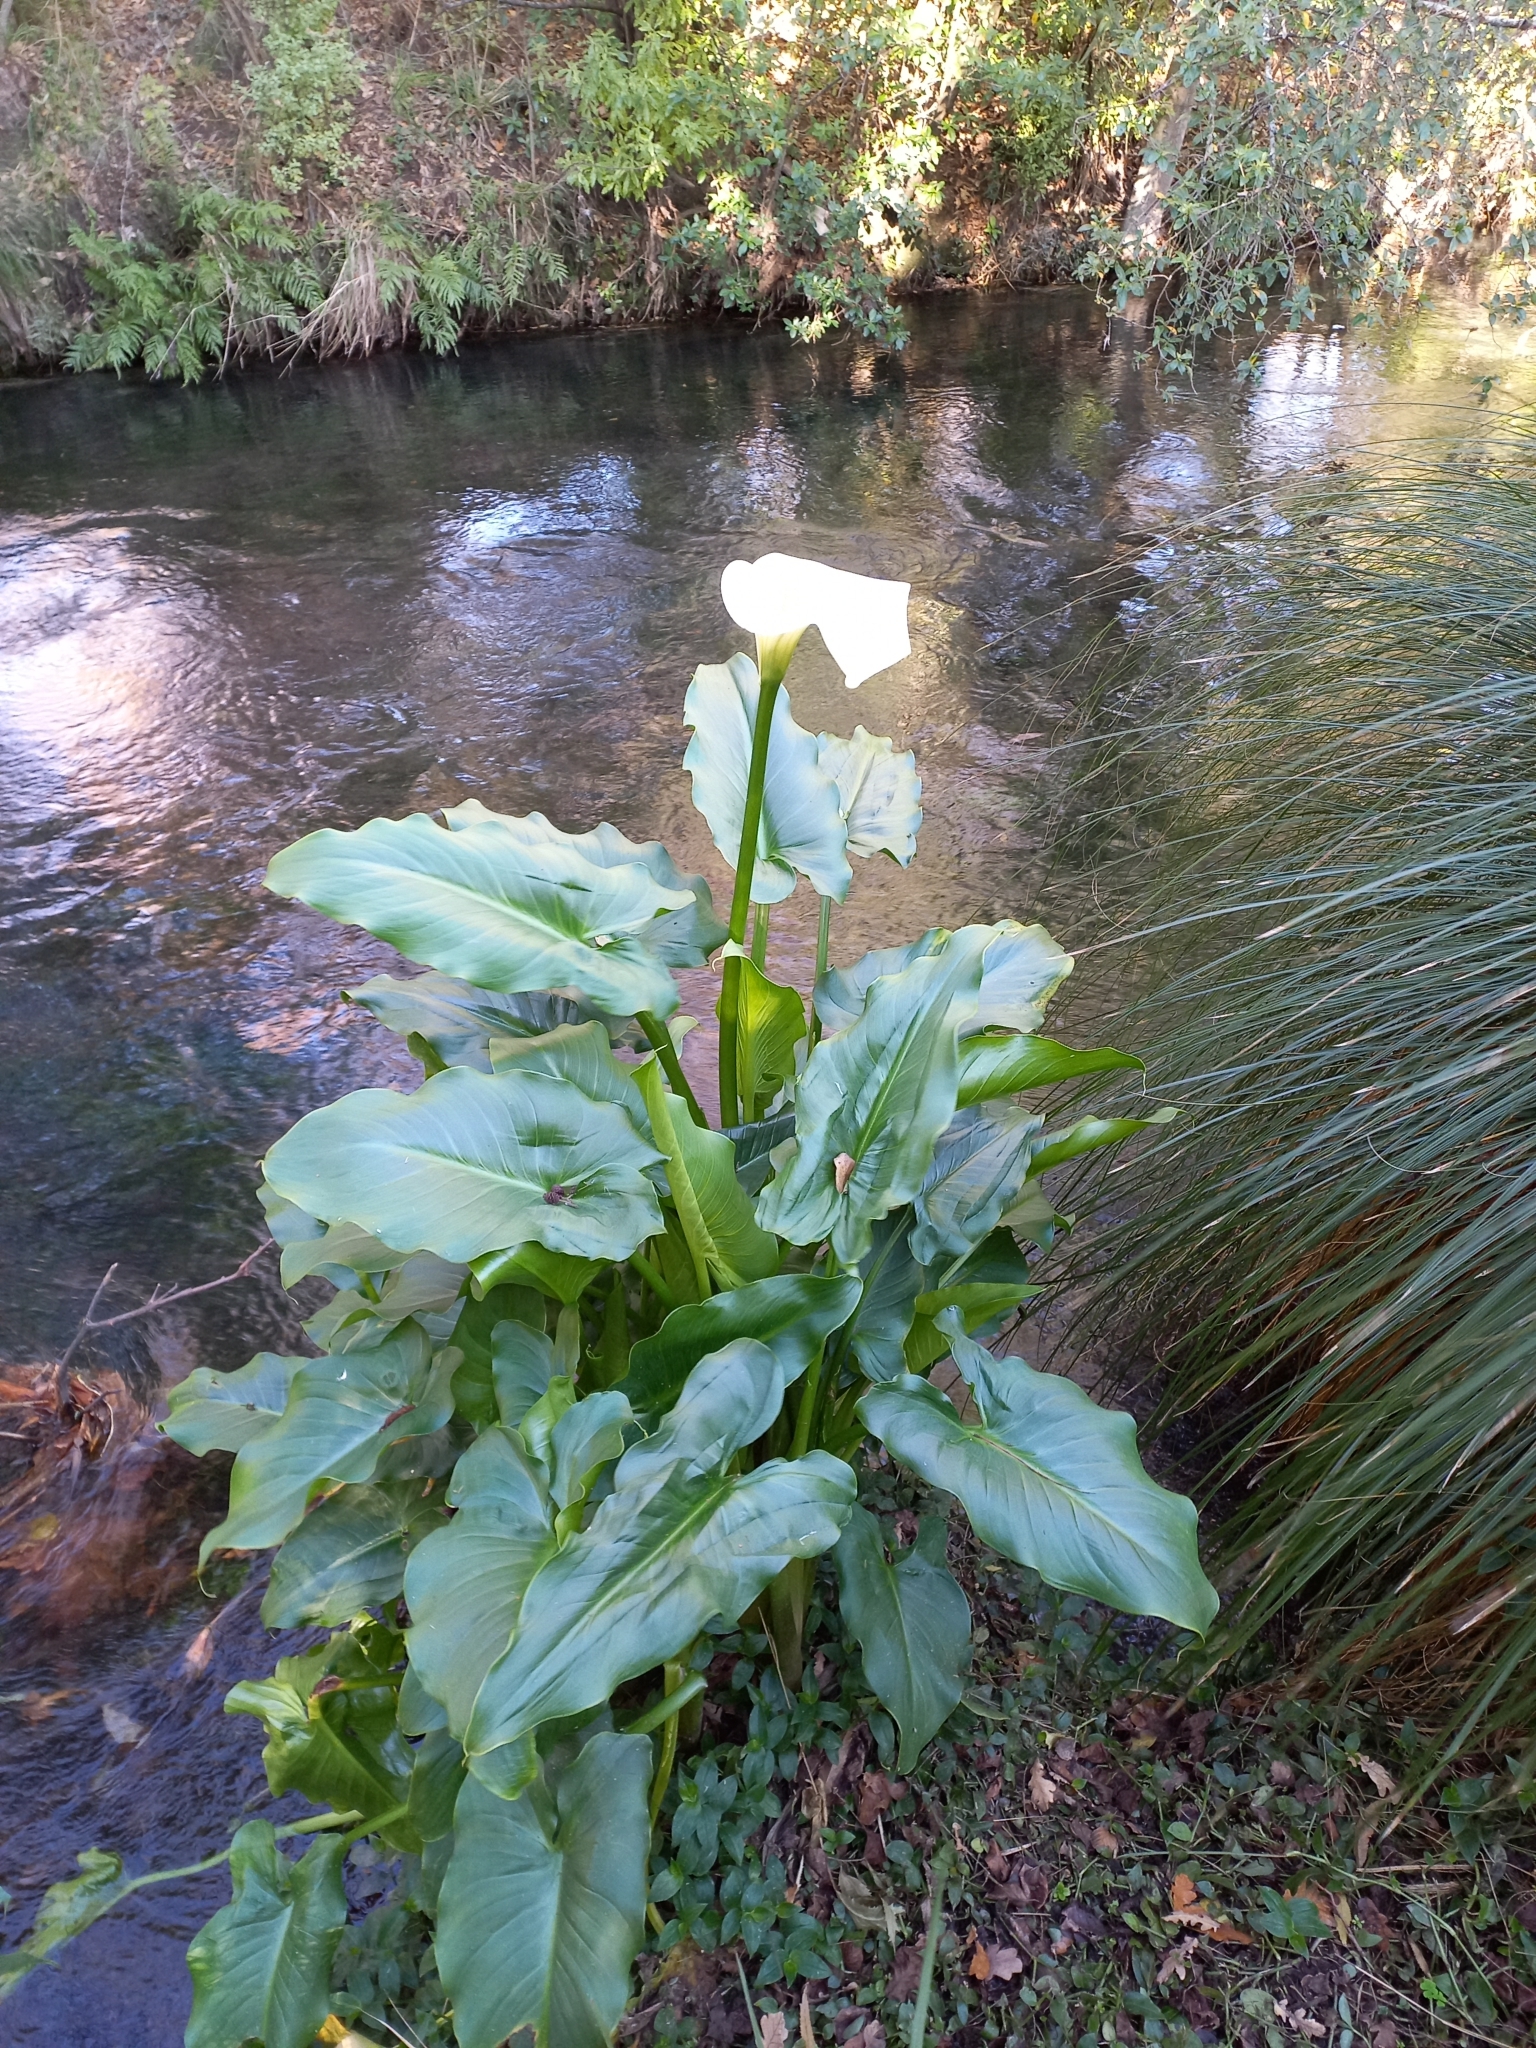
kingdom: Plantae
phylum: Tracheophyta
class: Liliopsida
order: Alismatales
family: Araceae
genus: Zantedeschia
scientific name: Zantedeschia aethiopica
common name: Altar-lily
